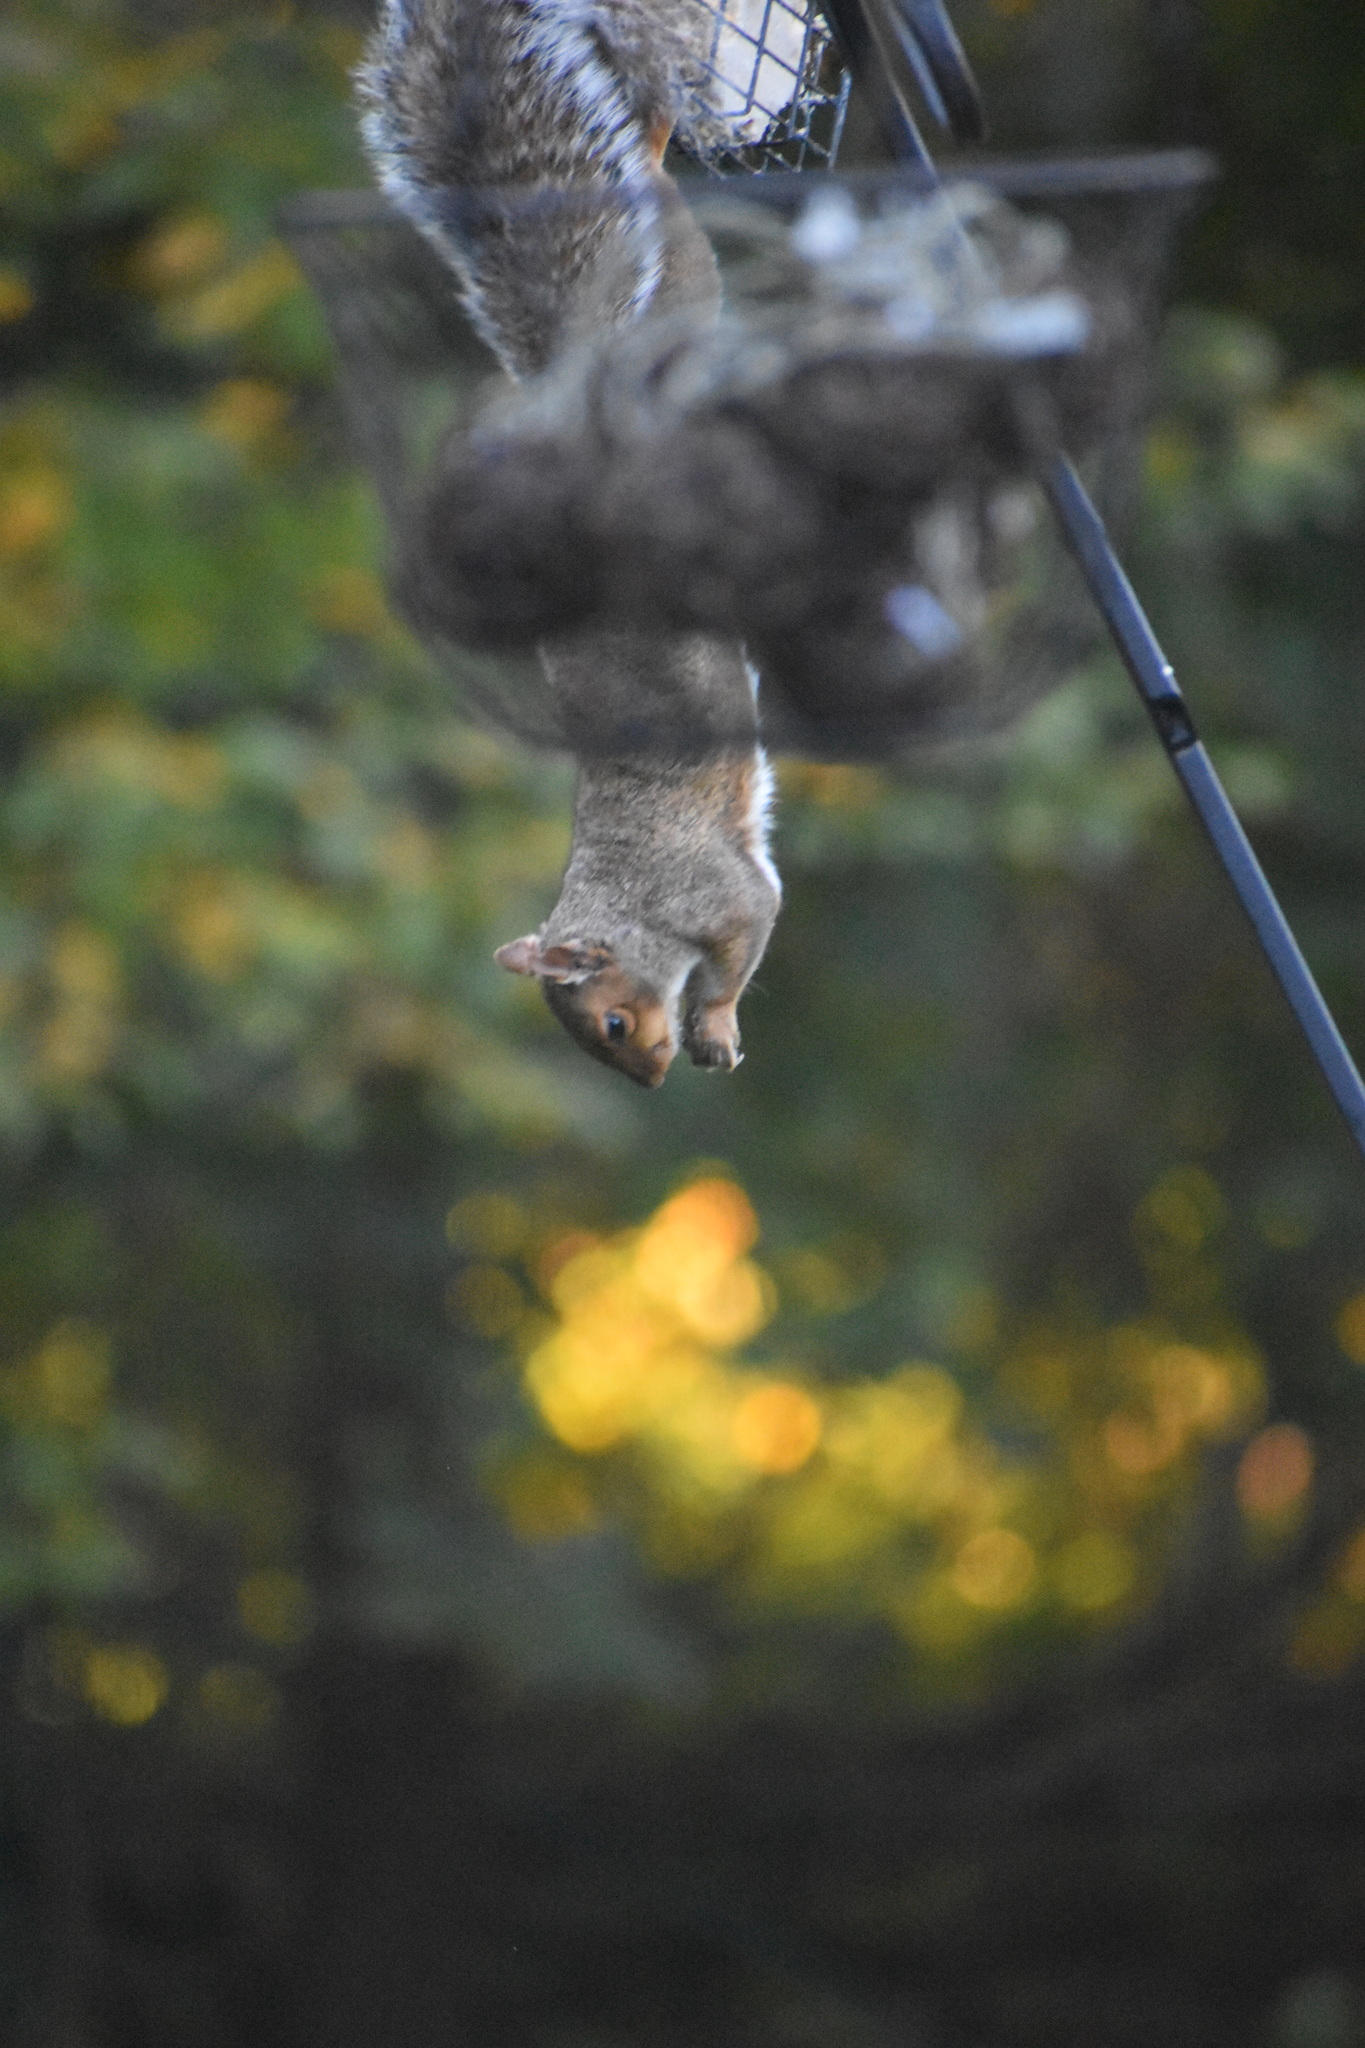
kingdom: Animalia
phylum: Chordata
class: Mammalia
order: Rodentia
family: Sciuridae
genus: Sciurus
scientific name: Sciurus carolinensis
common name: Eastern gray squirrel
